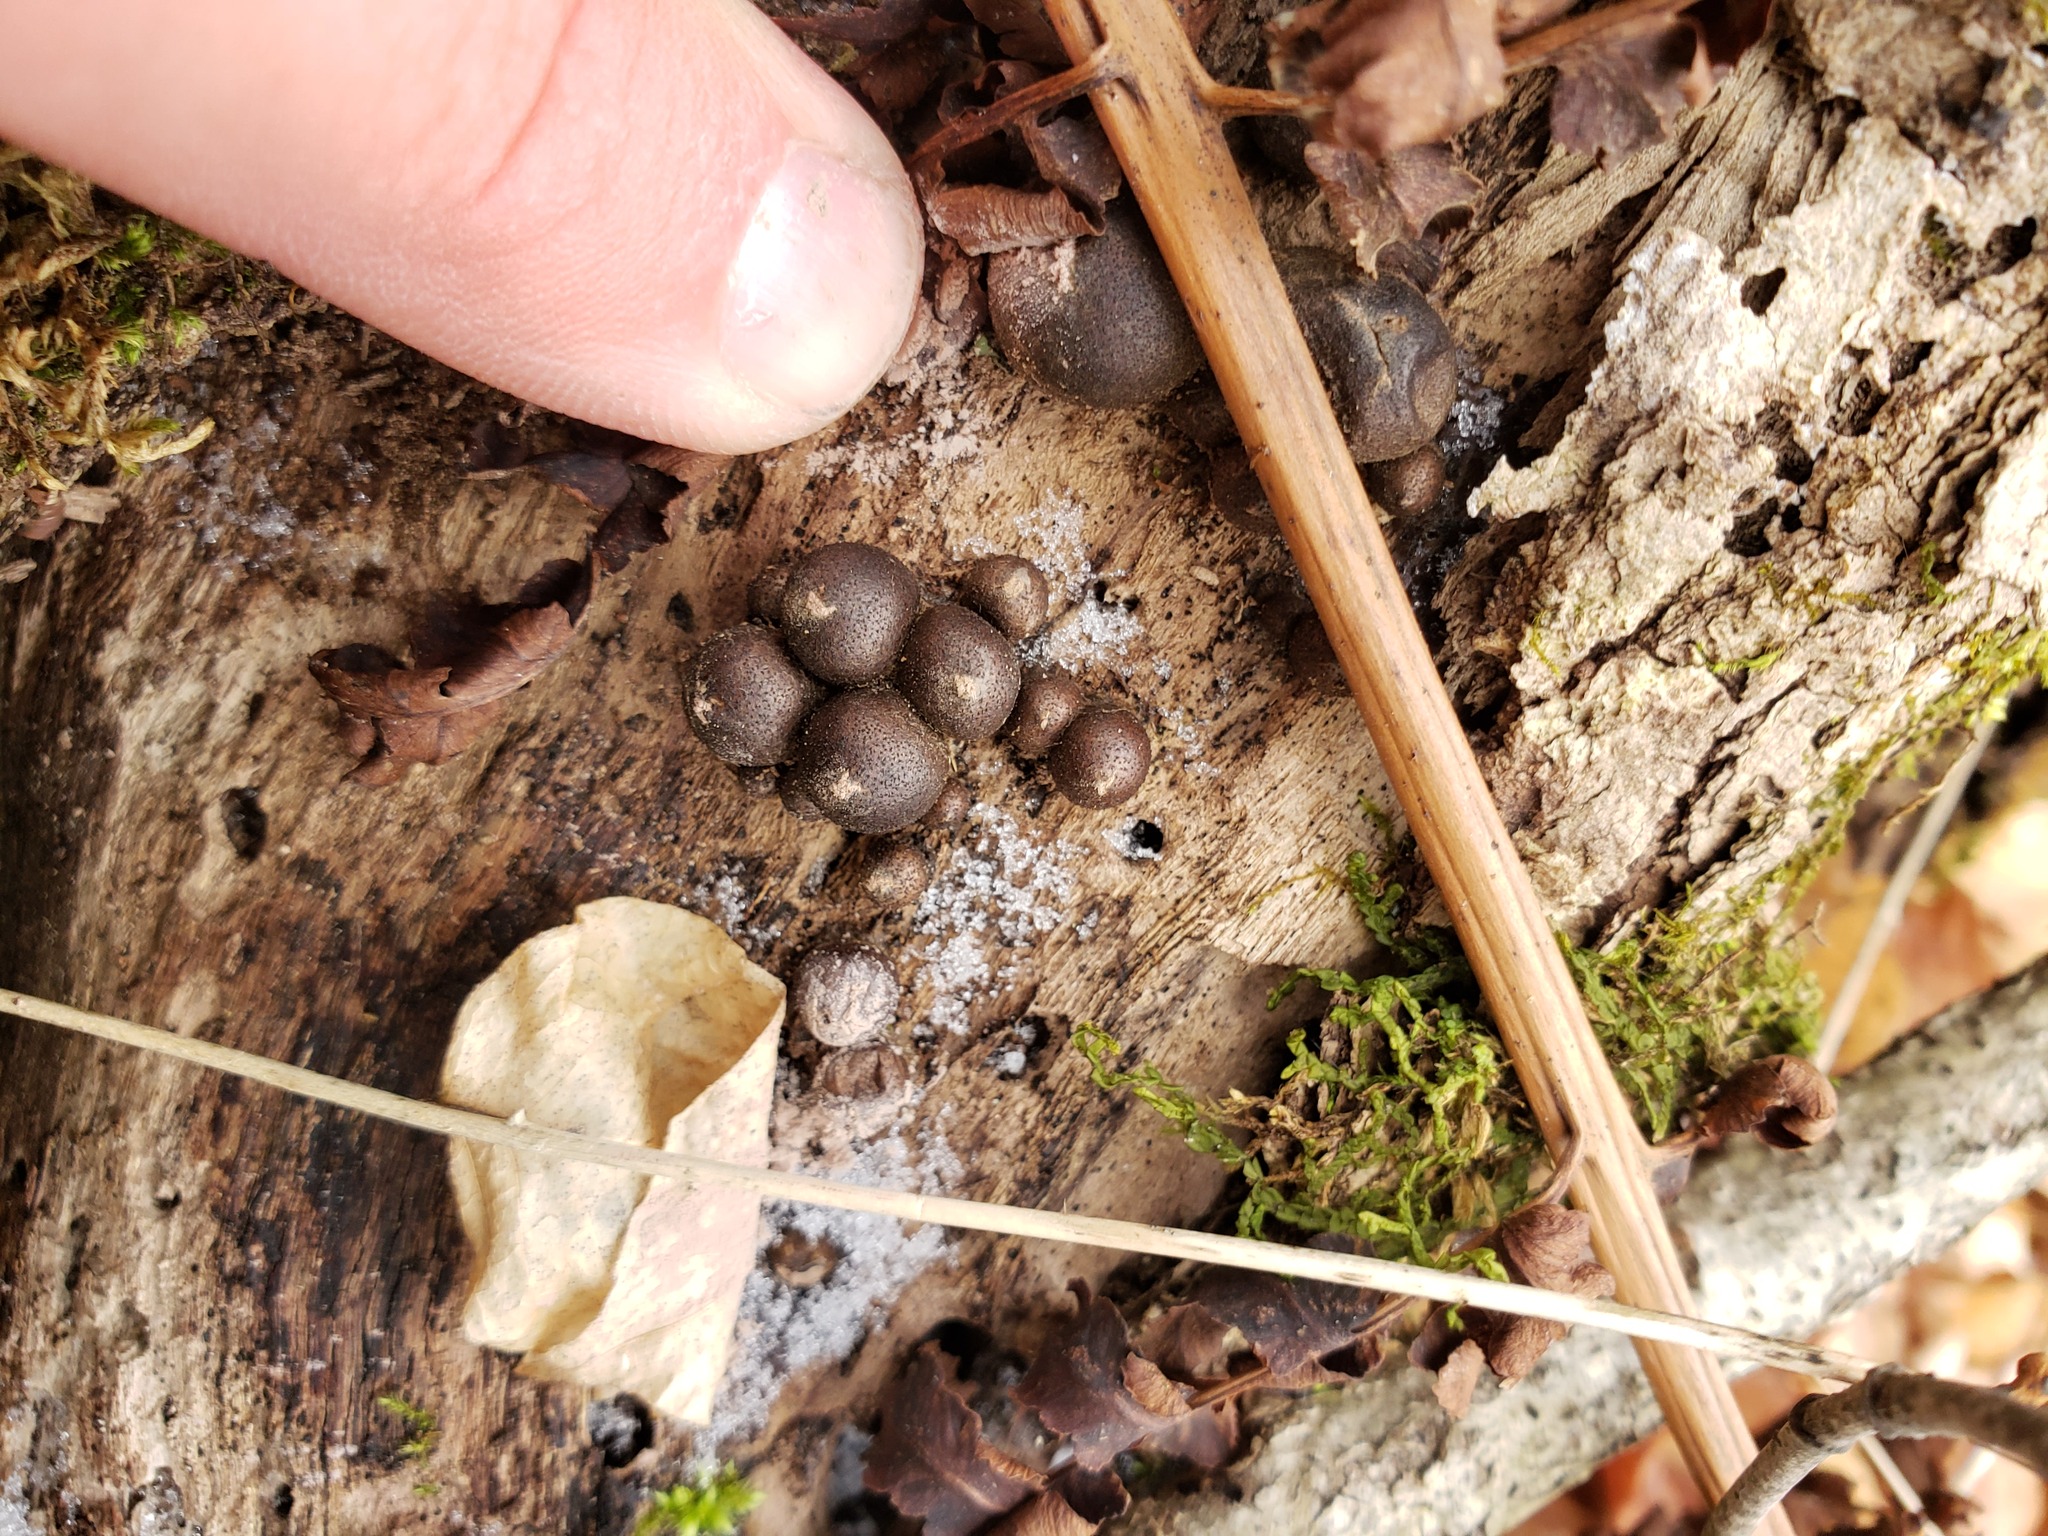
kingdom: Protozoa
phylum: Mycetozoa
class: Myxomycetes
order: Cribrariales
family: Tubiferaceae
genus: Lycogala
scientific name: Lycogala epidendrum
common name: Wolf's milk
